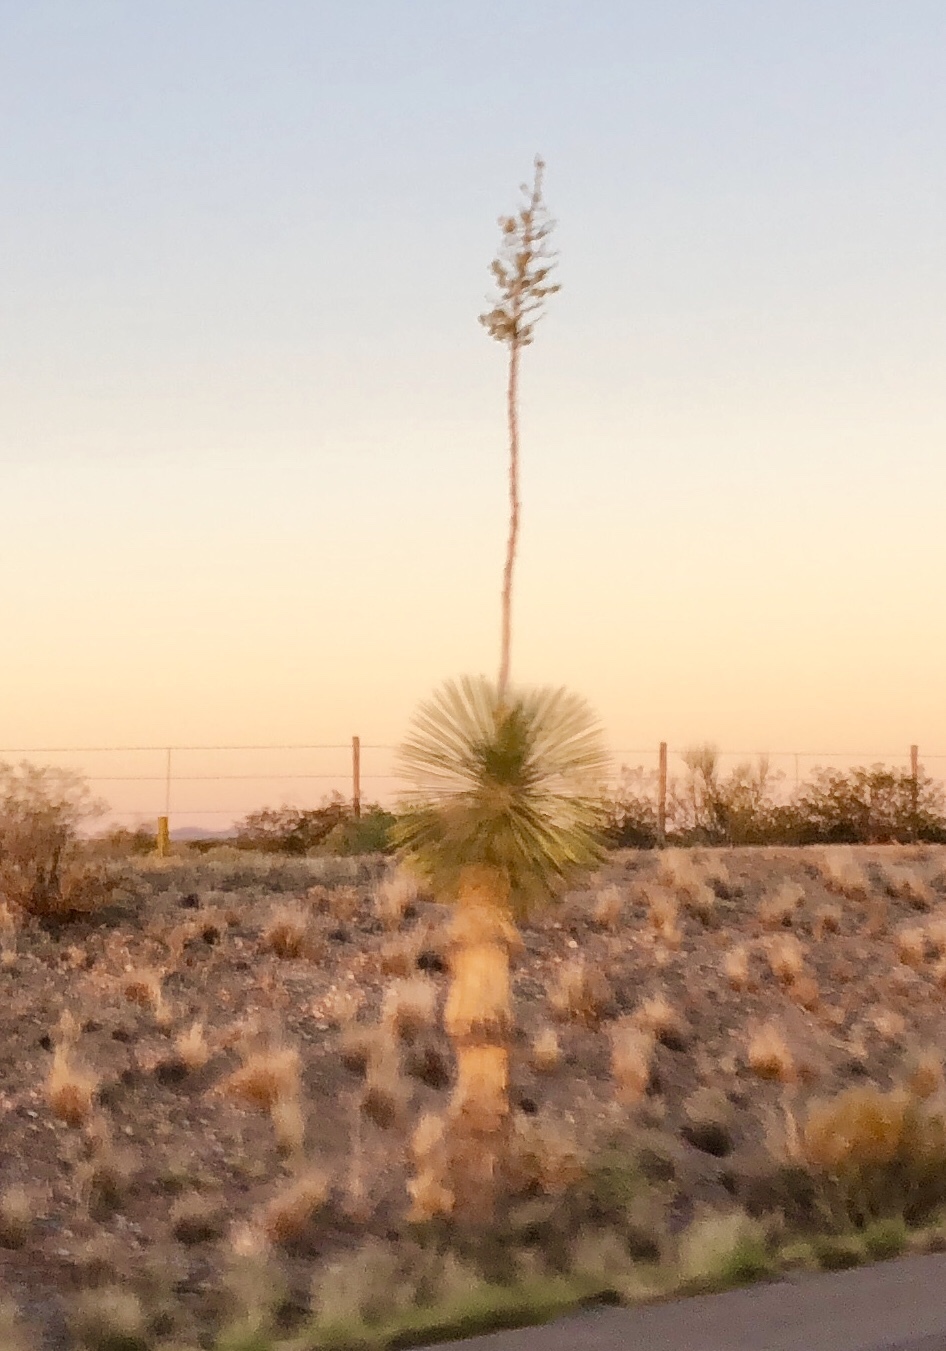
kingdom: Plantae
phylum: Tracheophyta
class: Liliopsida
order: Asparagales
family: Asparagaceae
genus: Yucca
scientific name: Yucca elata
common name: Palmella
